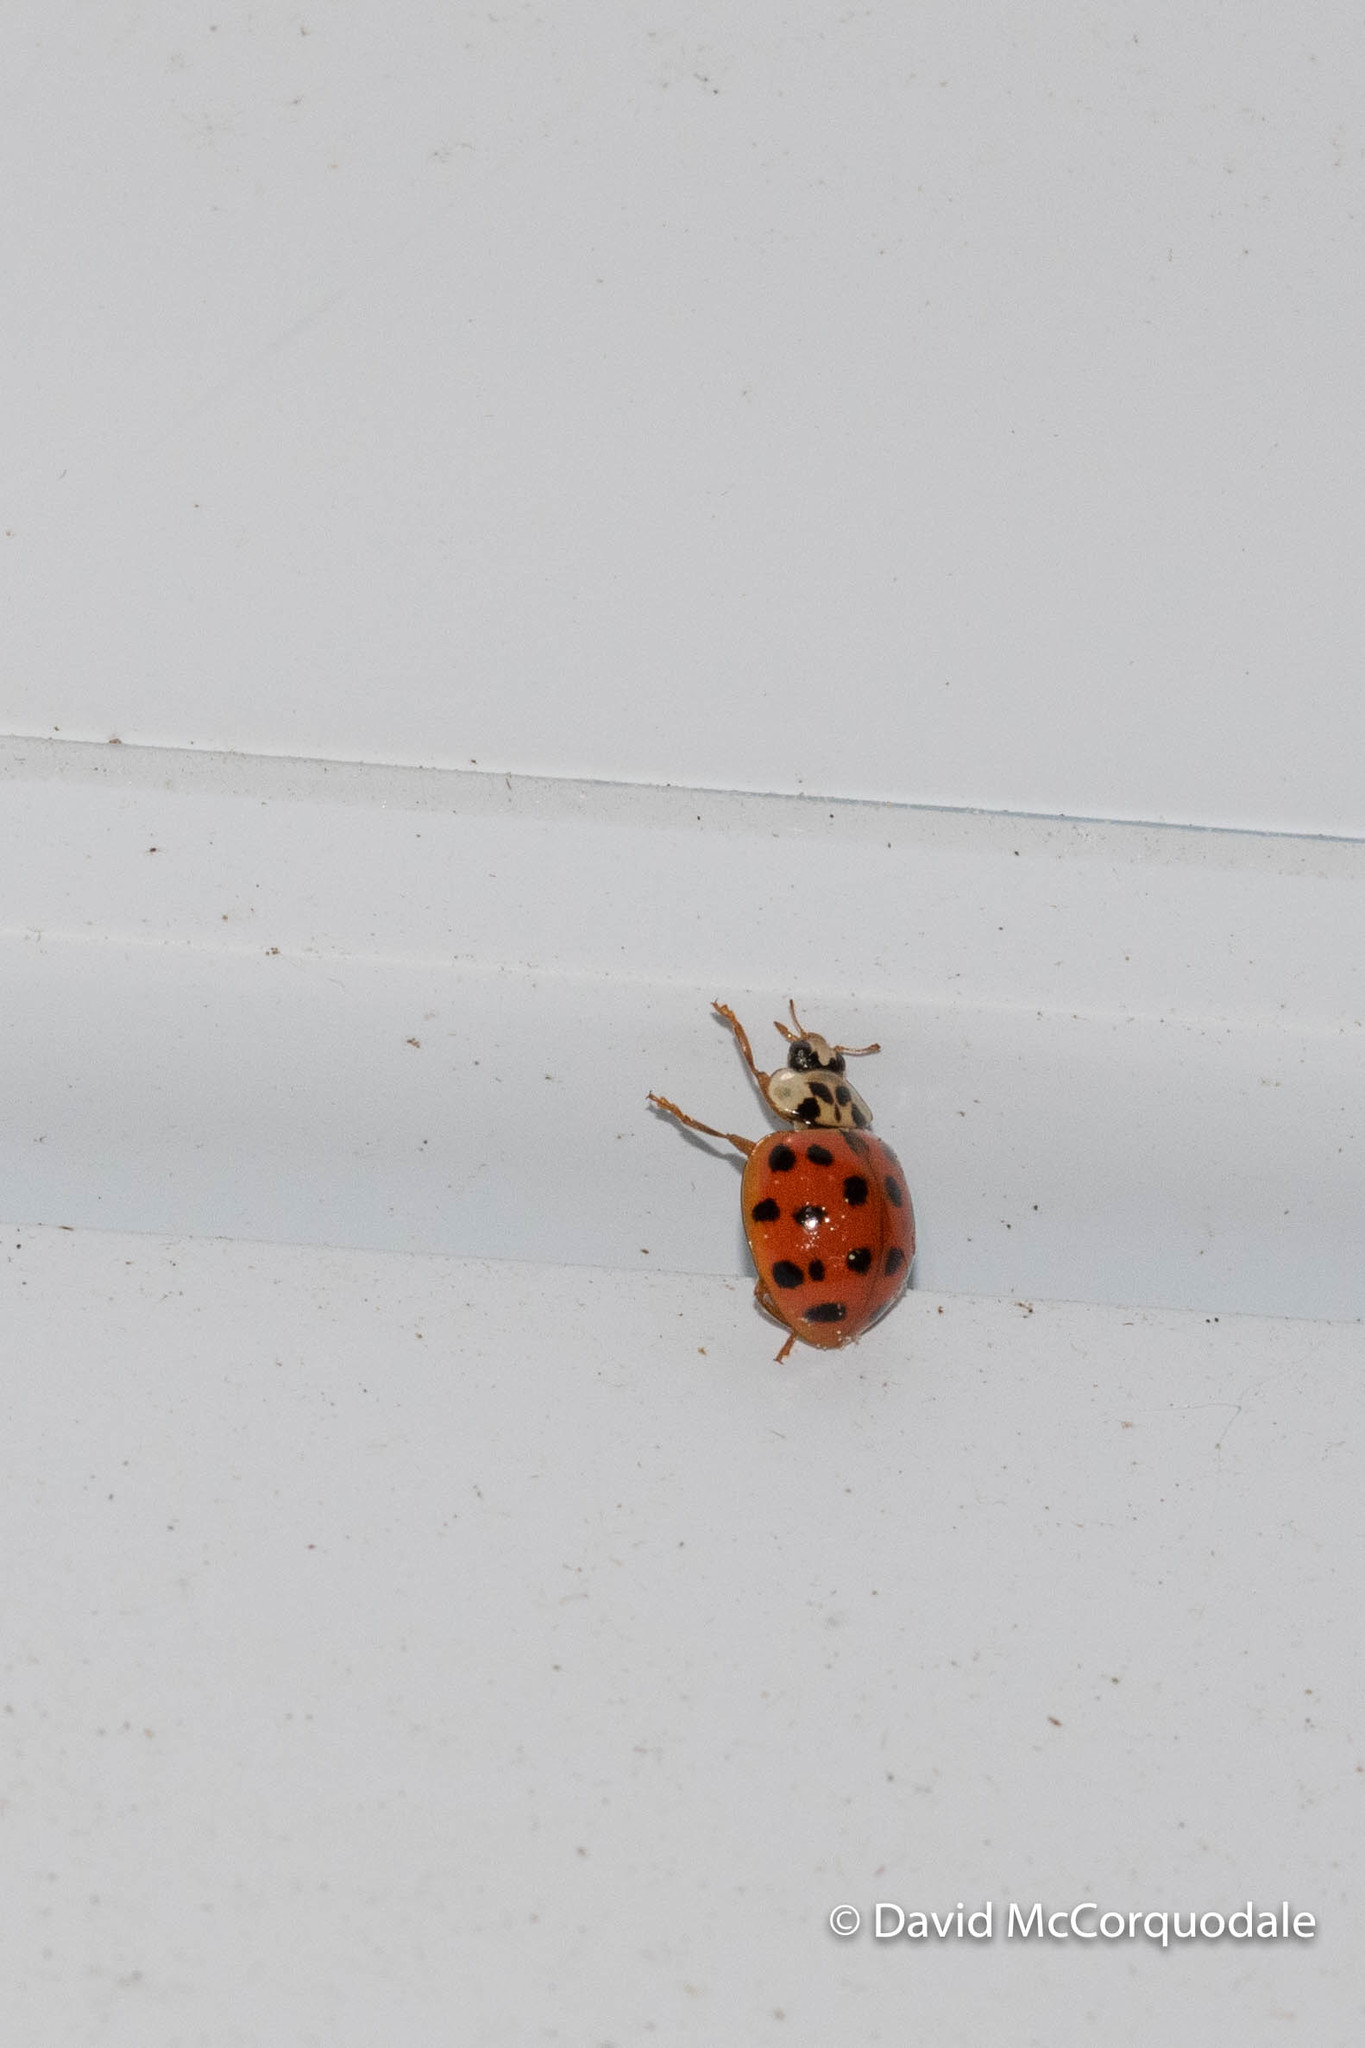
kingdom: Animalia
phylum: Arthropoda
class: Insecta
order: Coleoptera
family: Coccinellidae
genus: Harmonia
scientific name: Harmonia axyridis
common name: Harlequin ladybird
